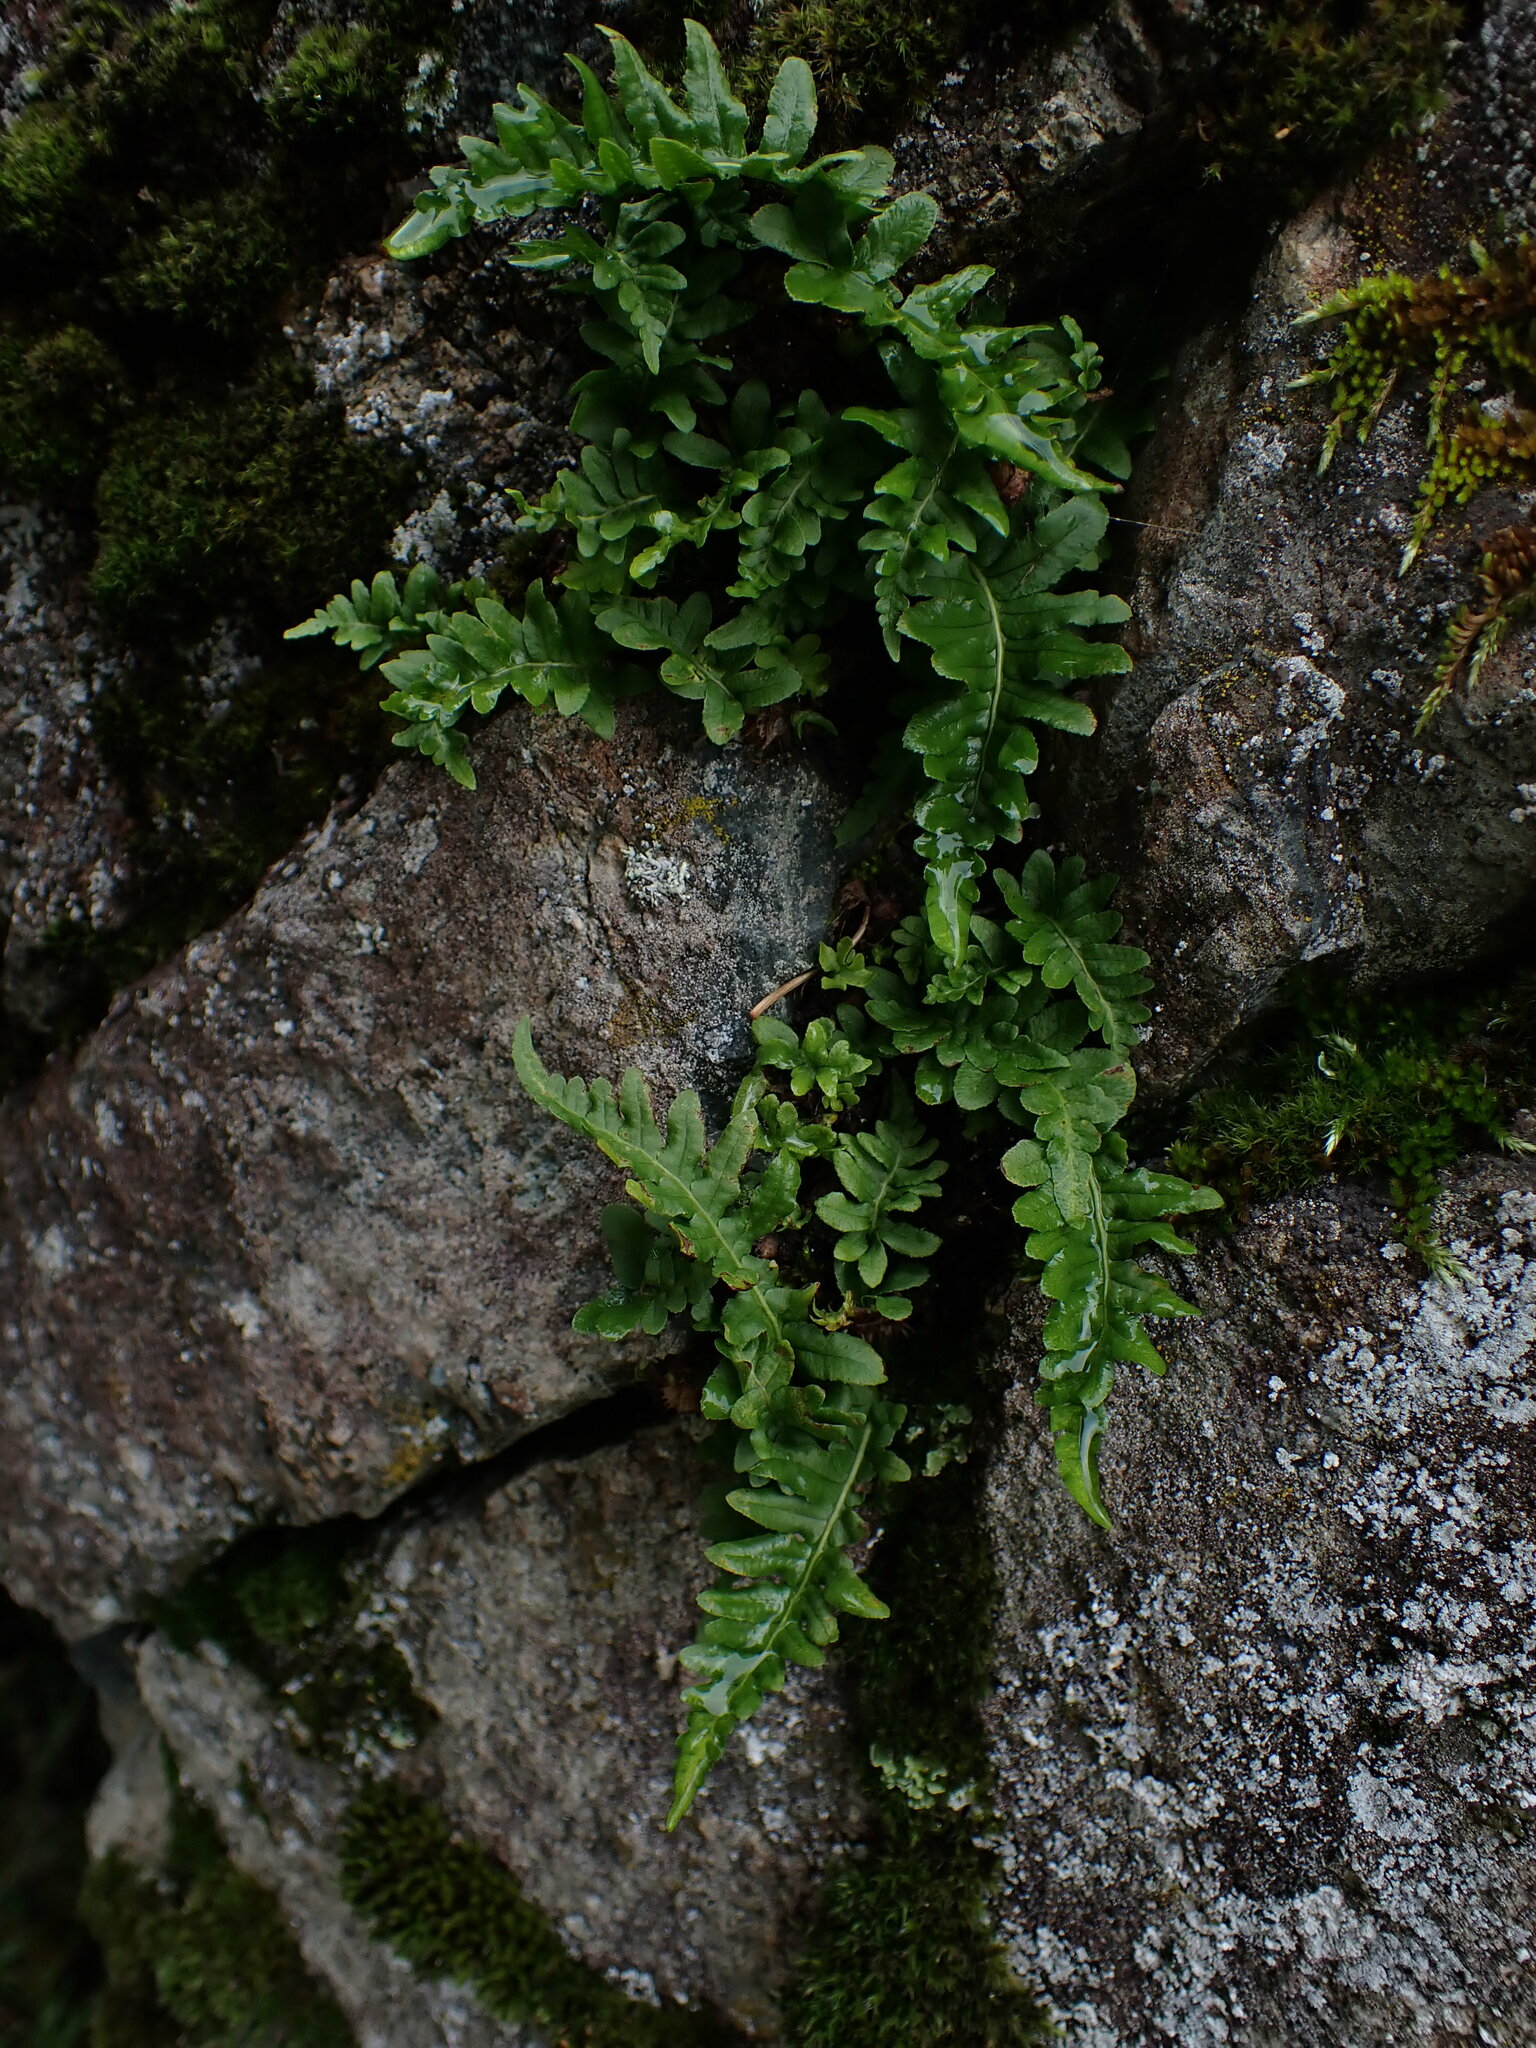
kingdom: Plantae
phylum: Tracheophyta
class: Polypodiopsida
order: Polypodiales
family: Polypodiaceae
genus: Polypodium
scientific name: Polypodium glycyrrhiza
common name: Licorice fern
